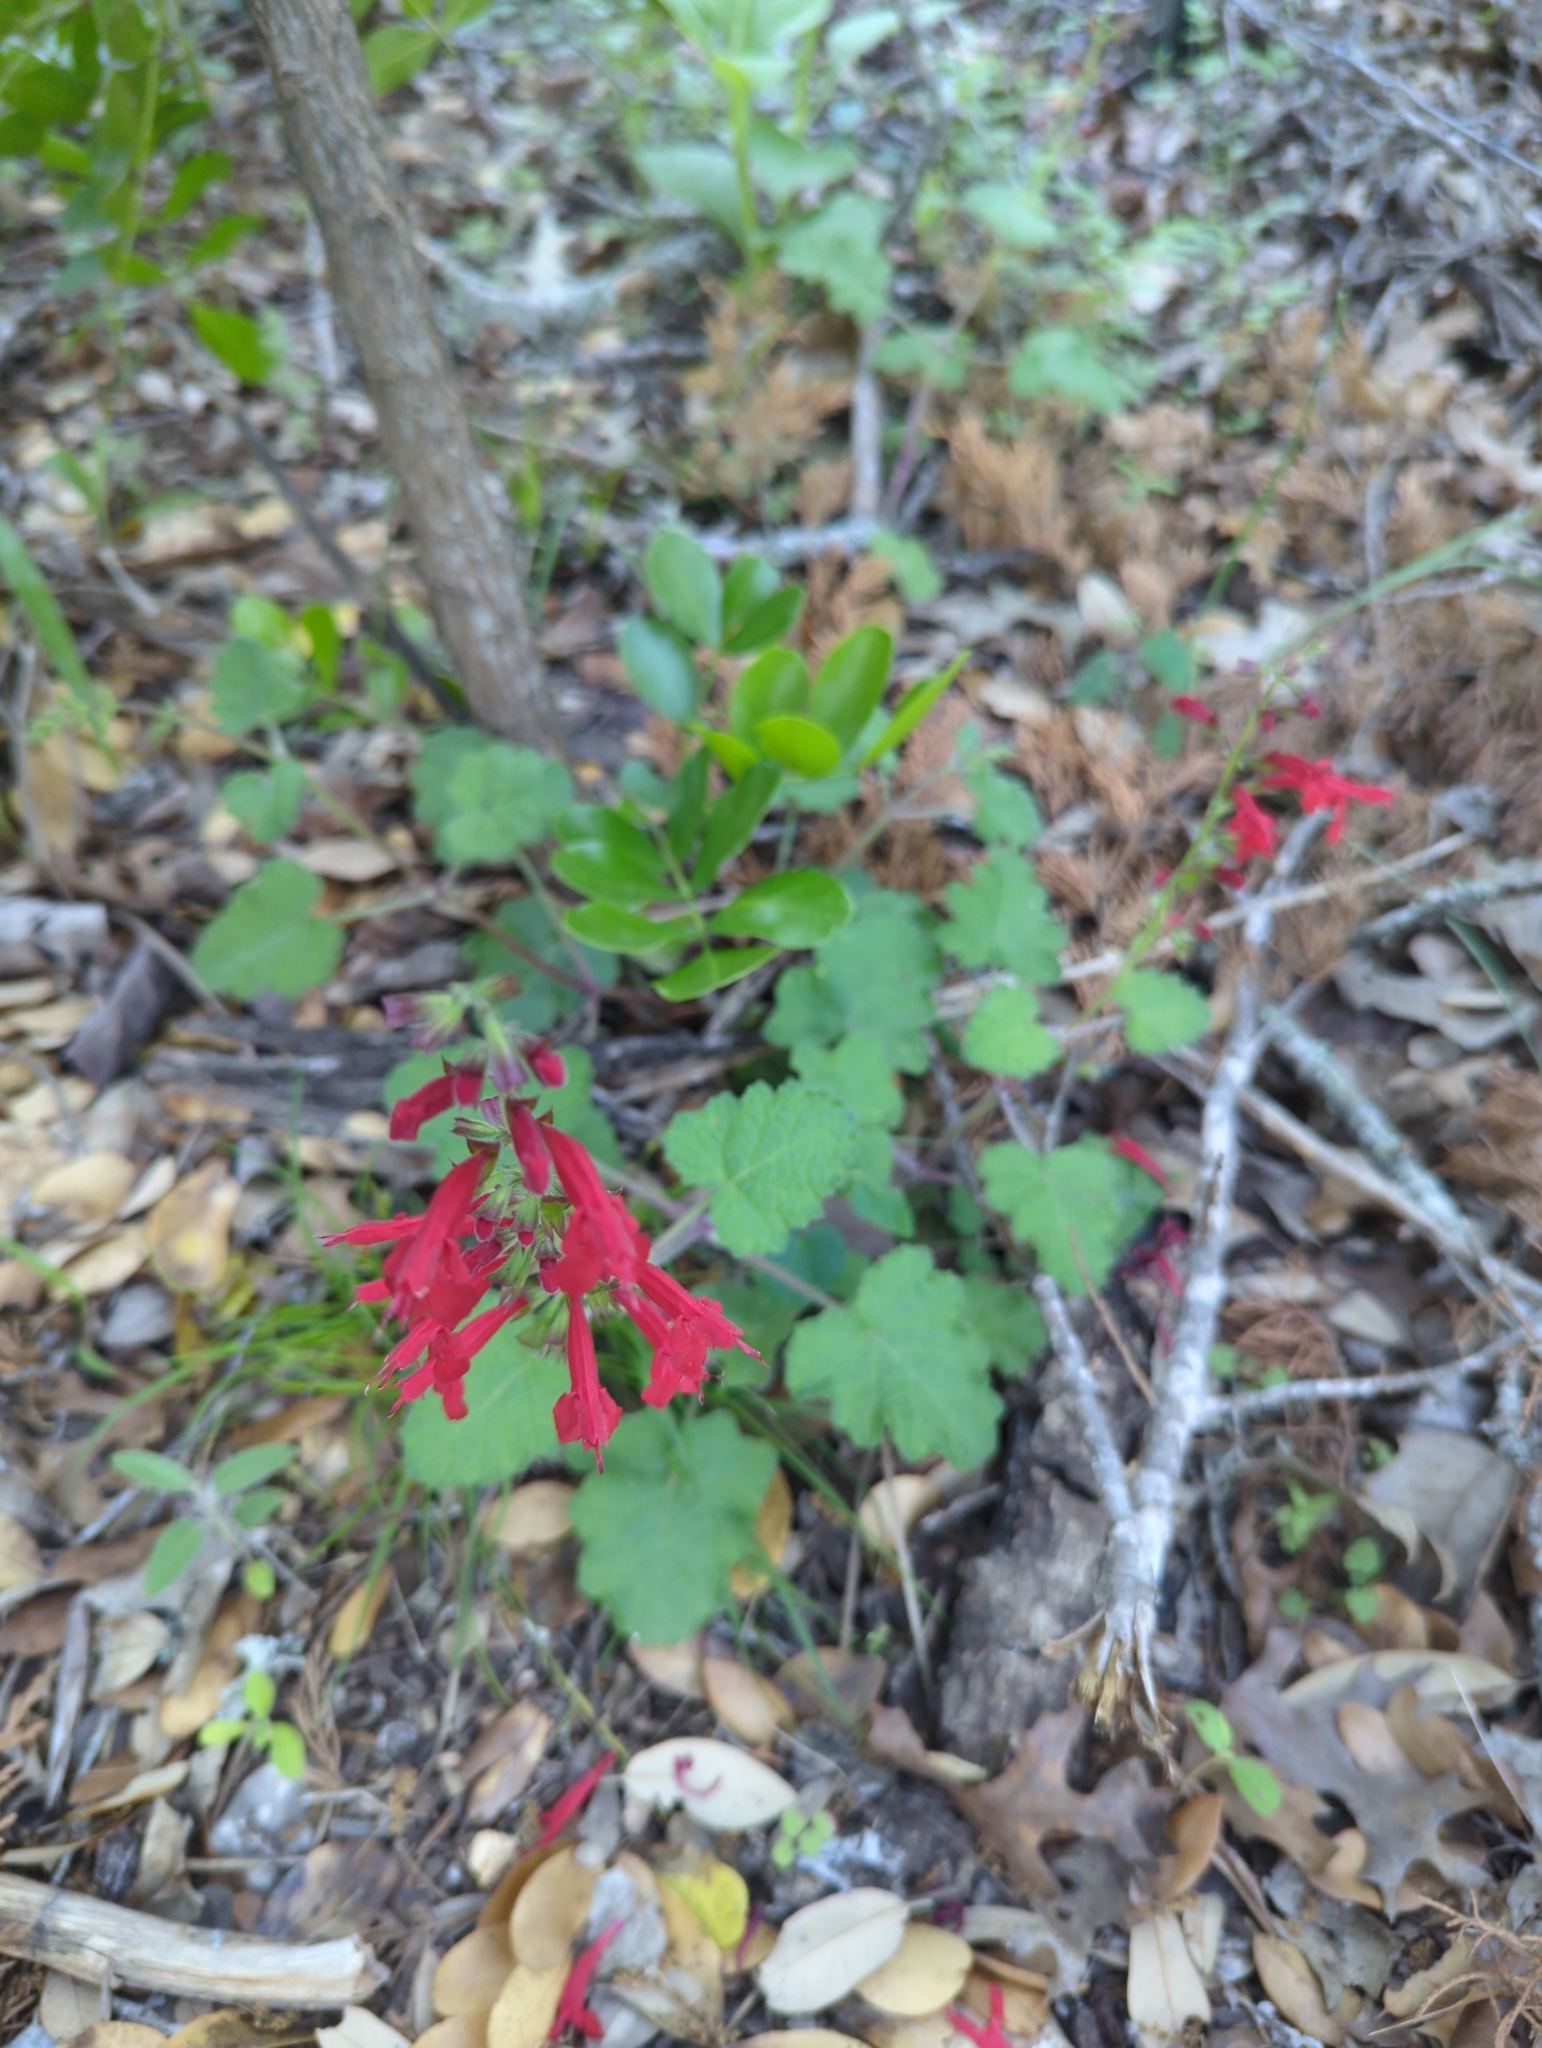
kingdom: Plantae
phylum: Tracheophyta
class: Magnoliopsida
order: Lamiales
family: Lamiaceae
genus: Salvia
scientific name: Salvia roemeriana
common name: Cedar sage
